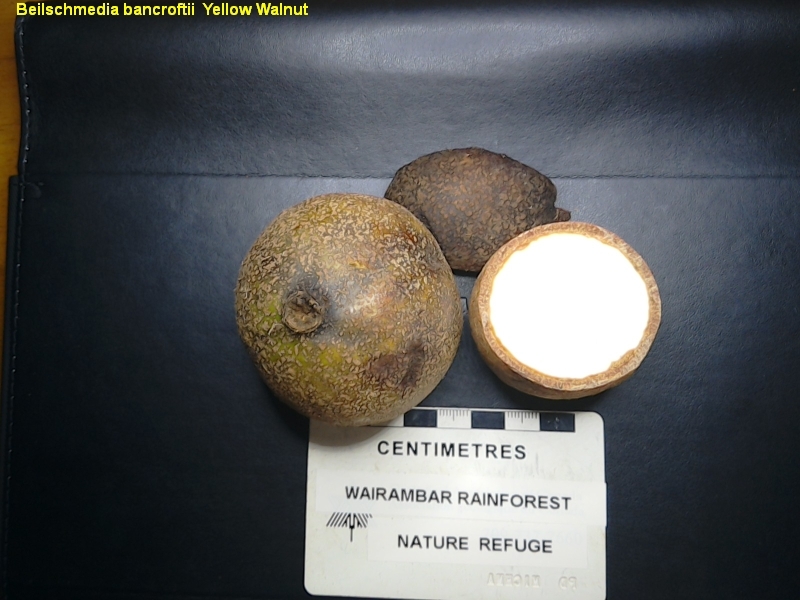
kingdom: Plantae
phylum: Tracheophyta
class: Magnoliopsida
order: Laurales
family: Lauraceae
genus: Beilschmiedia
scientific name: Beilschmiedia bancroftii
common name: Canary-ash
